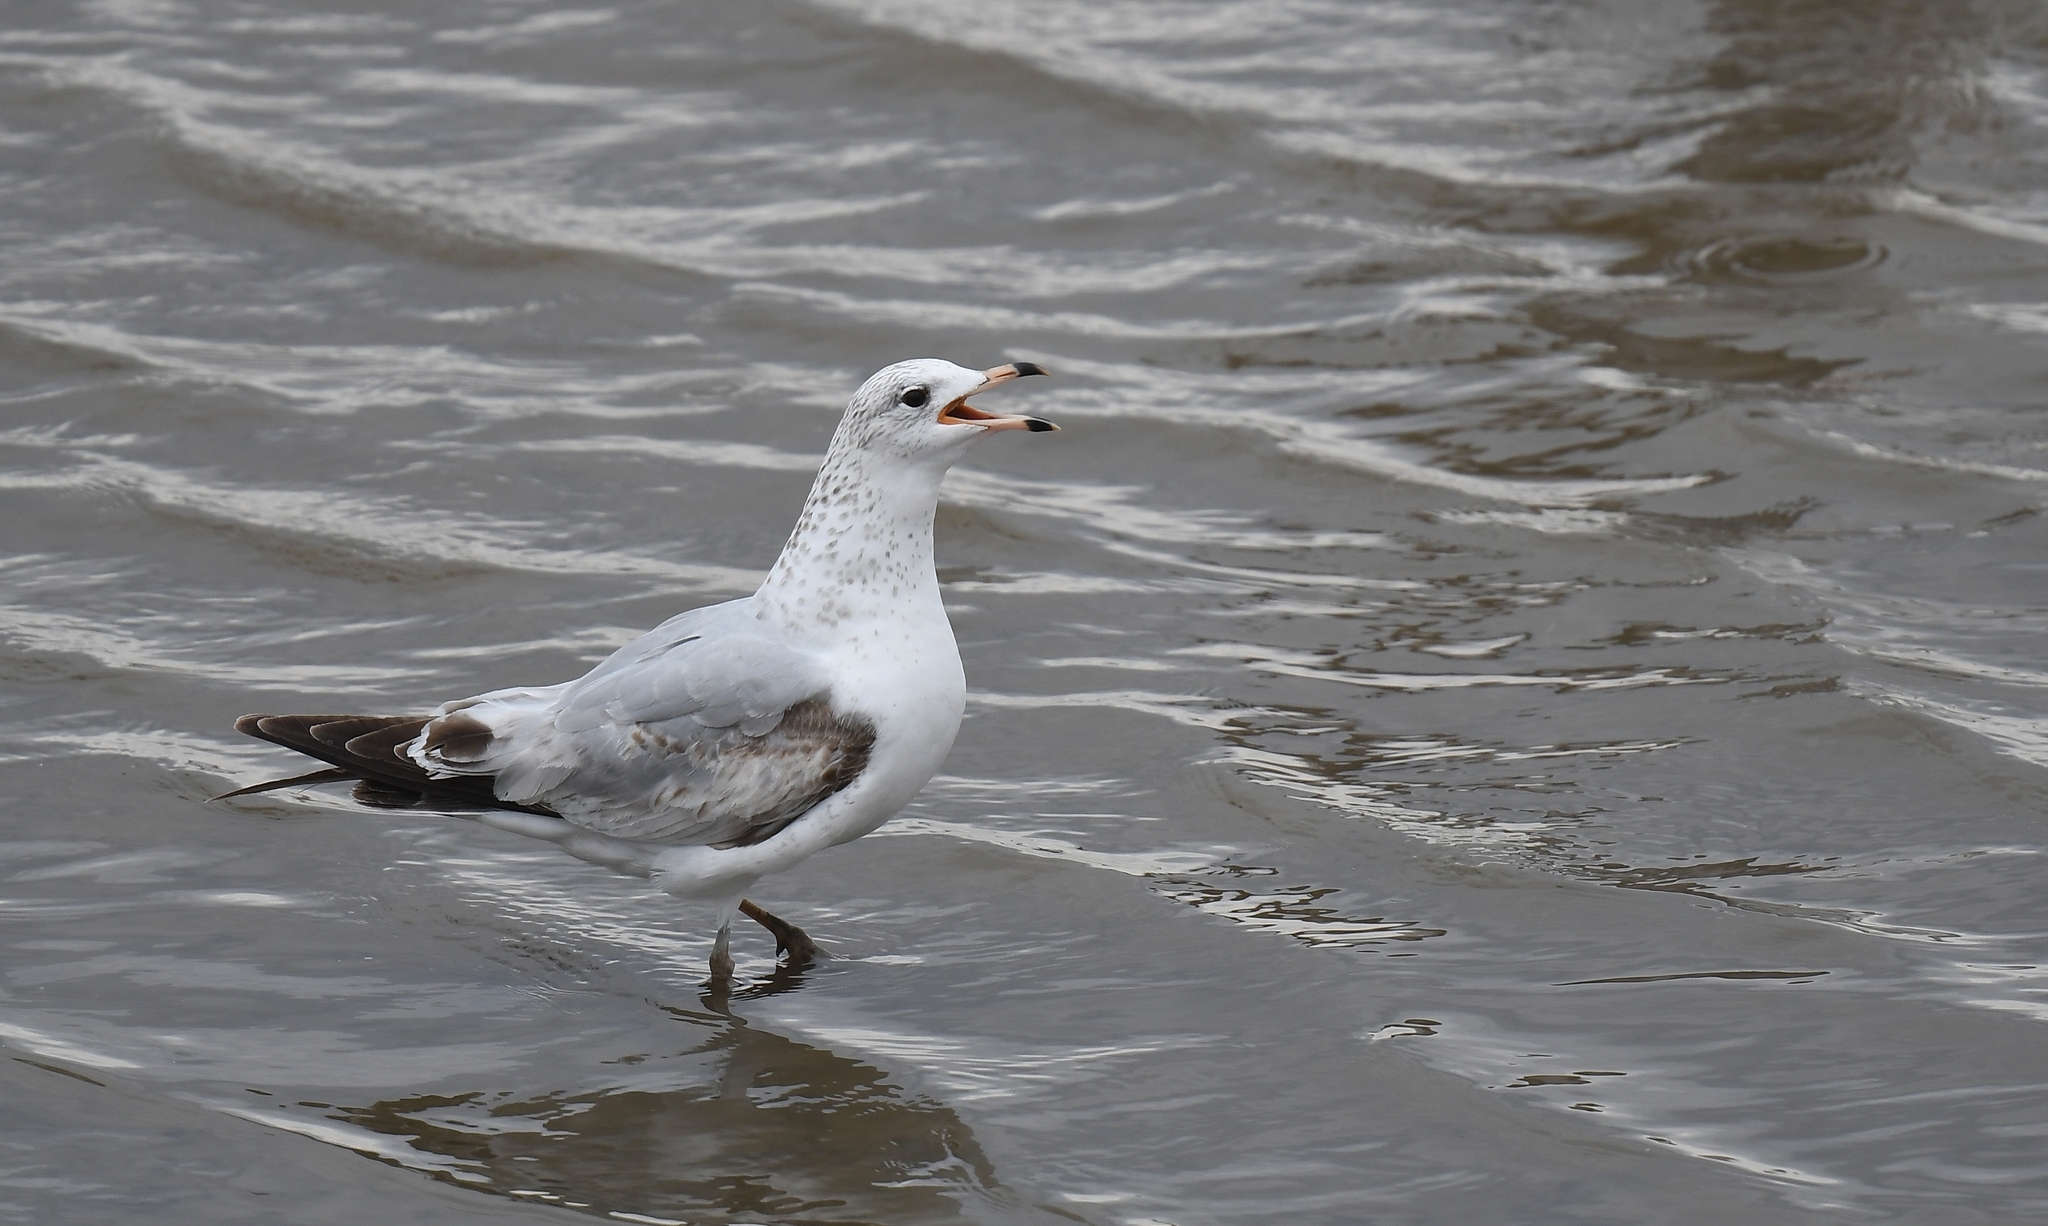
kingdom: Animalia
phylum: Chordata
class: Aves
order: Charadriiformes
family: Laridae
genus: Larus
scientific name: Larus delawarensis
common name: Ring-billed gull
